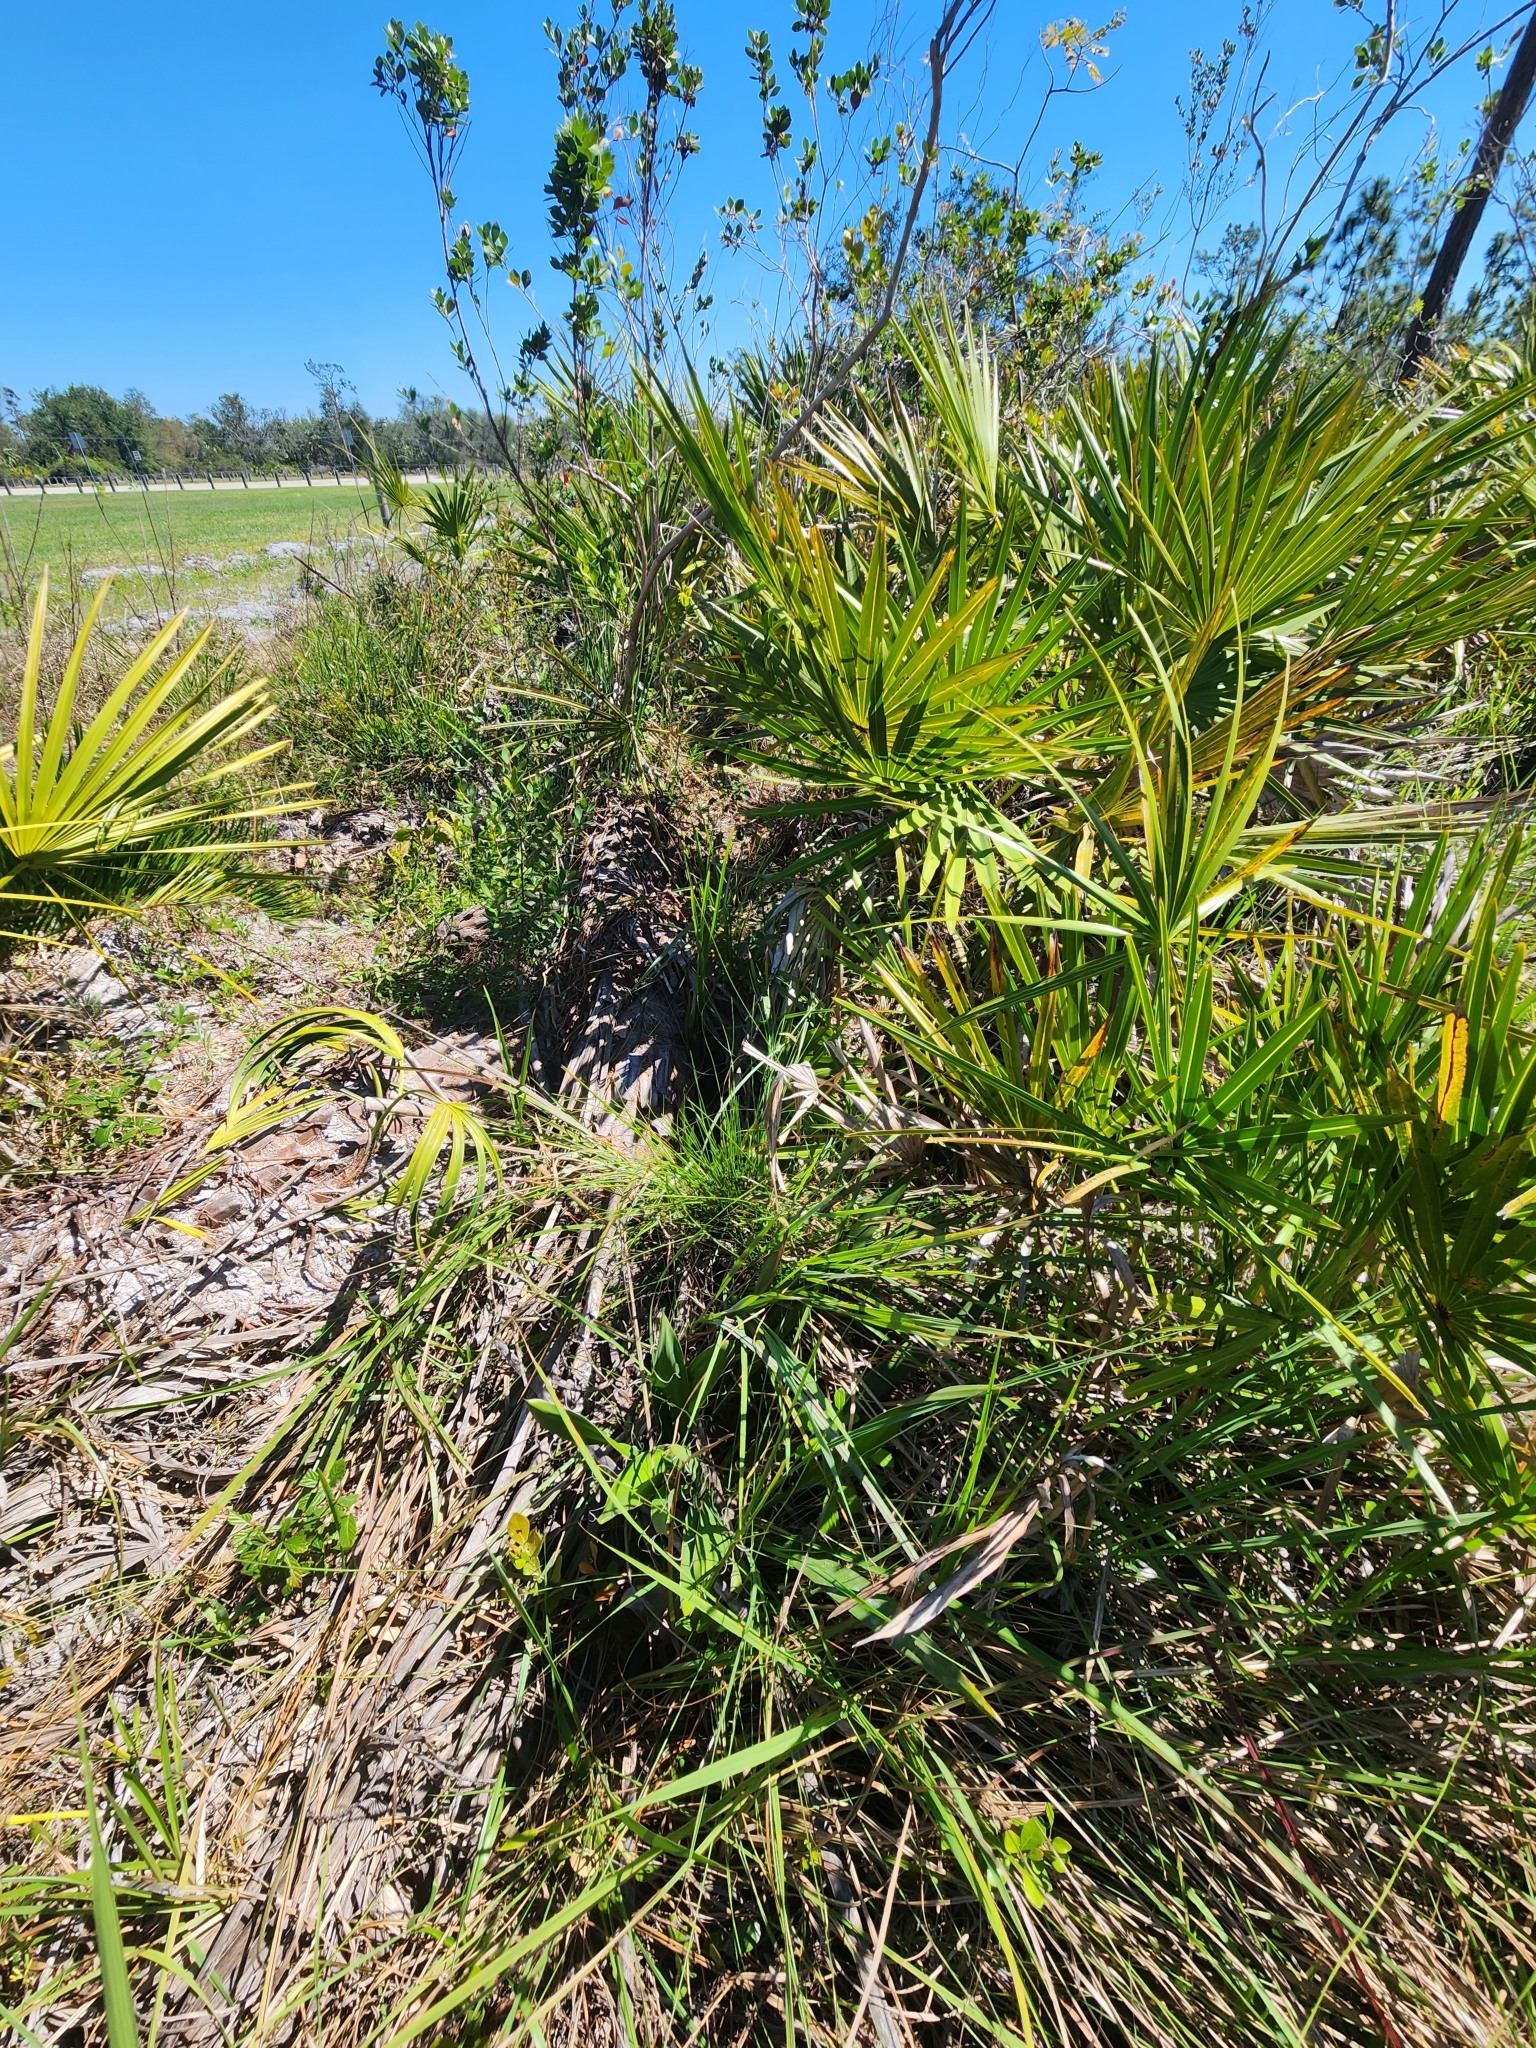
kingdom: Plantae
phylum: Tracheophyta
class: Liliopsida
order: Asparagales
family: Asparagaceae
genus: Yucca
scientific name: Yucca filamentosa
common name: Adam's-needle
